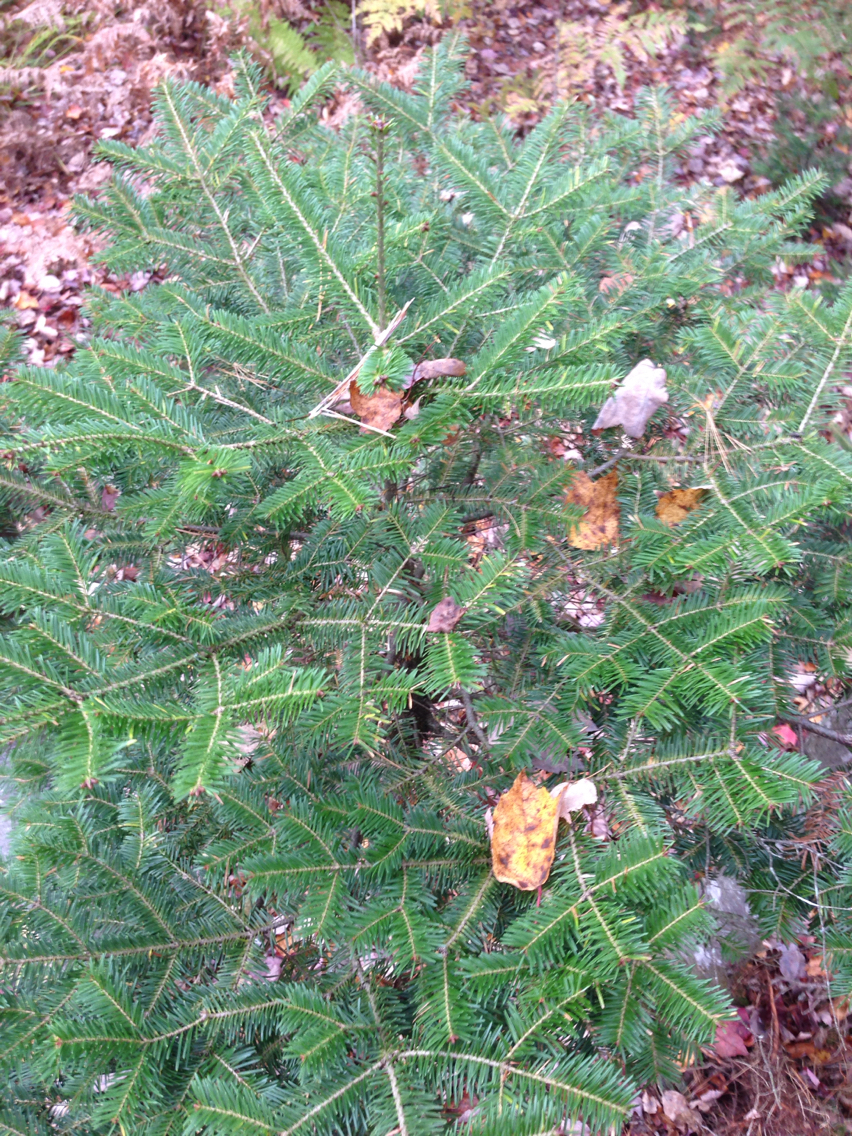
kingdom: Plantae
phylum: Tracheophyta
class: Pinopsida
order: Pinales
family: Pinaceae
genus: Abies
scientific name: Abies balsamea
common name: Balsam fir
